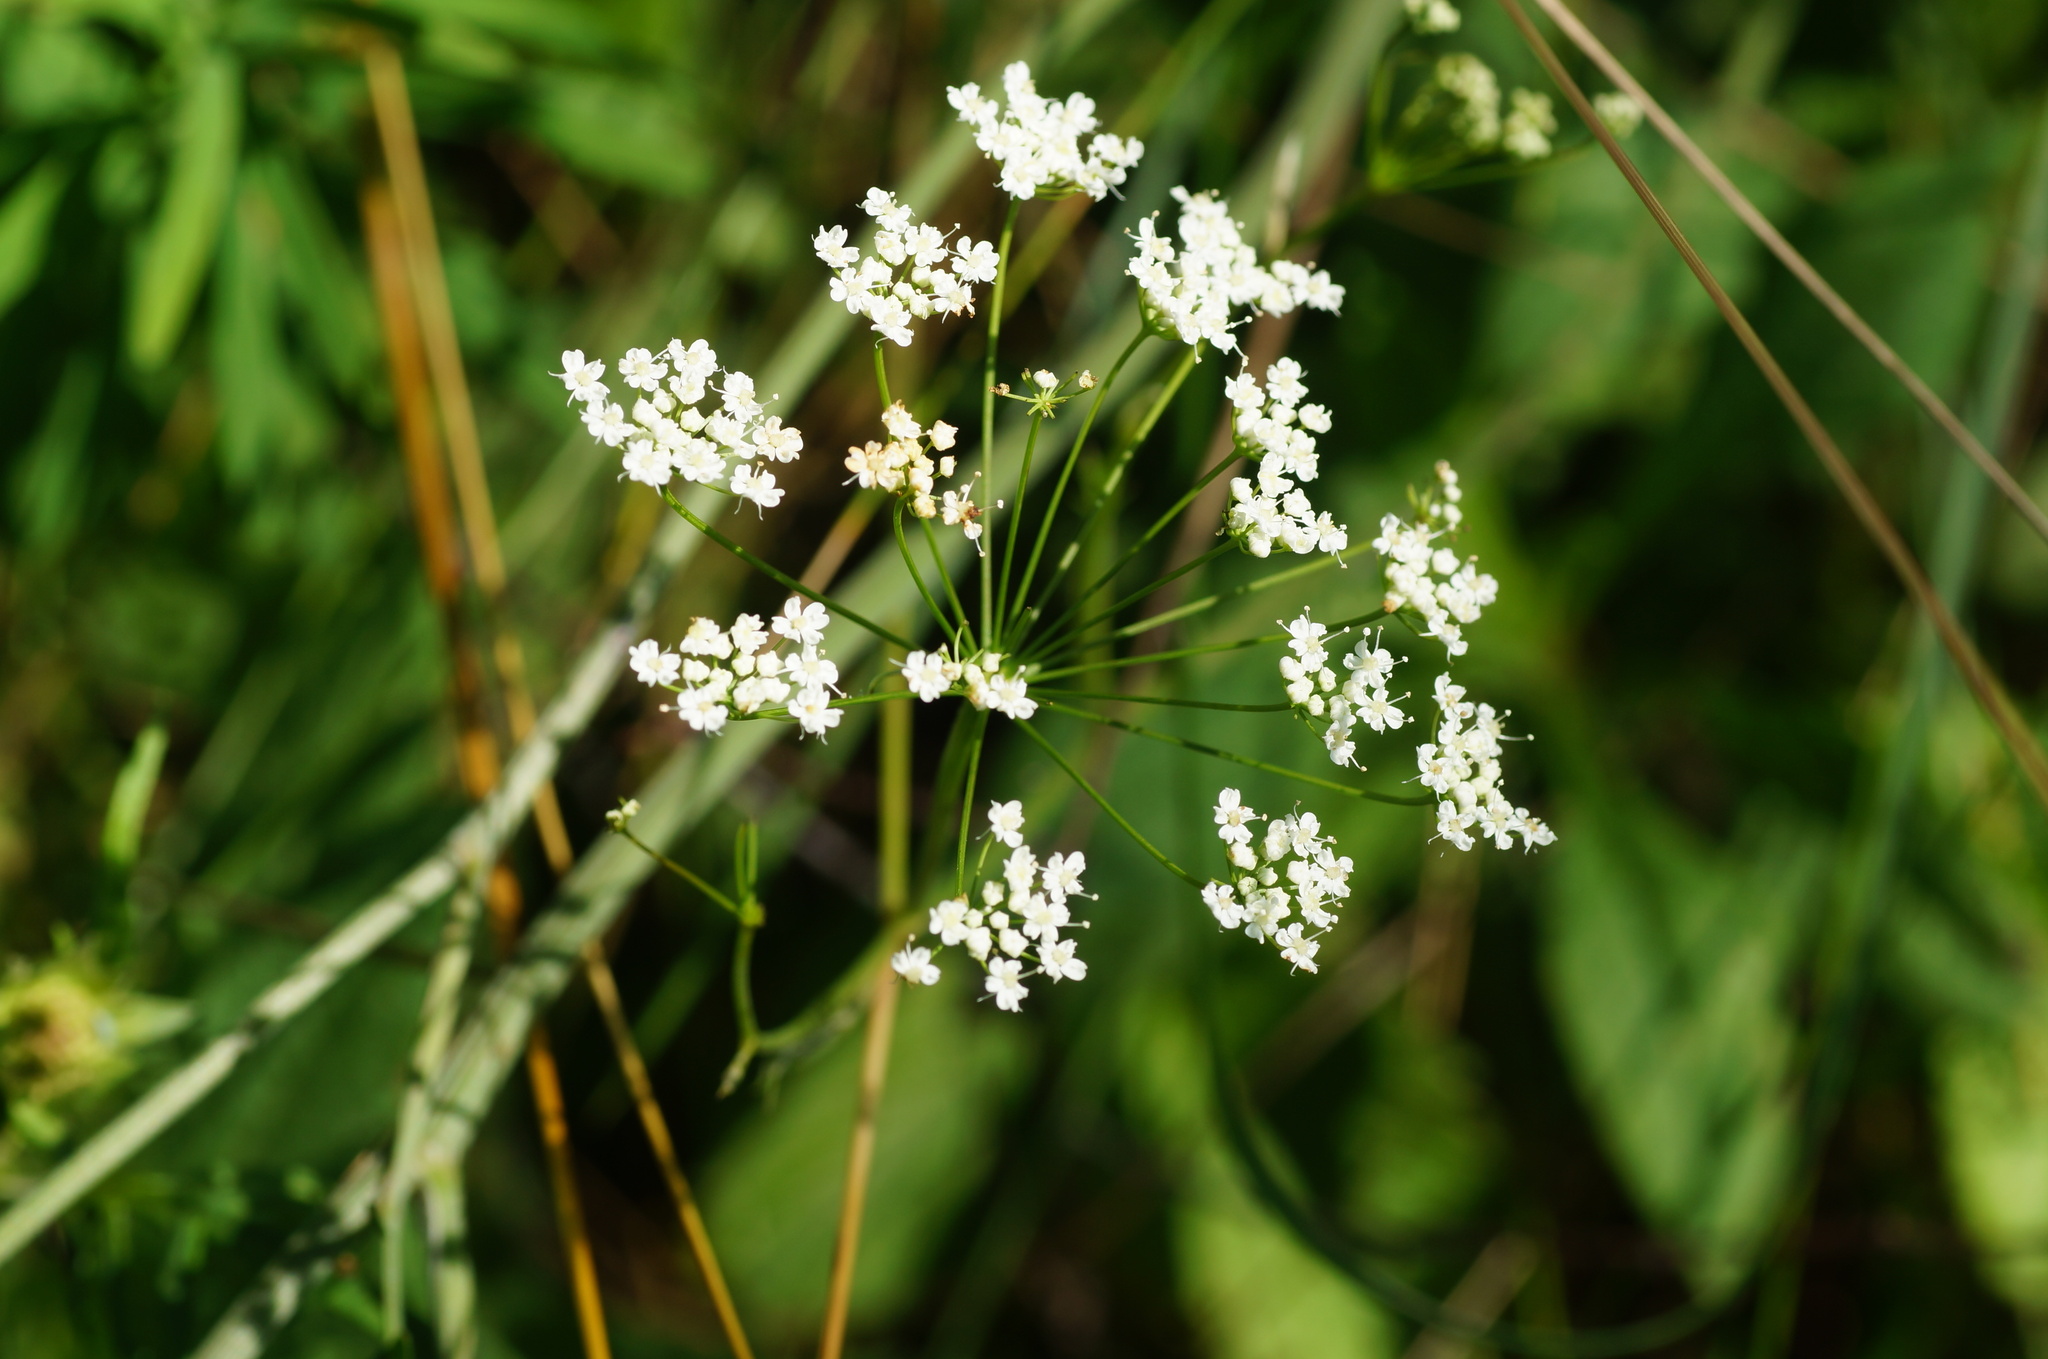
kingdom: Plantae
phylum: Tracheophyta
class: Magnoliopsida
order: Apiales
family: Apiaceae
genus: Pimpinella
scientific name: Pimpinella saxifraga
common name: Burnet-saxifrage
